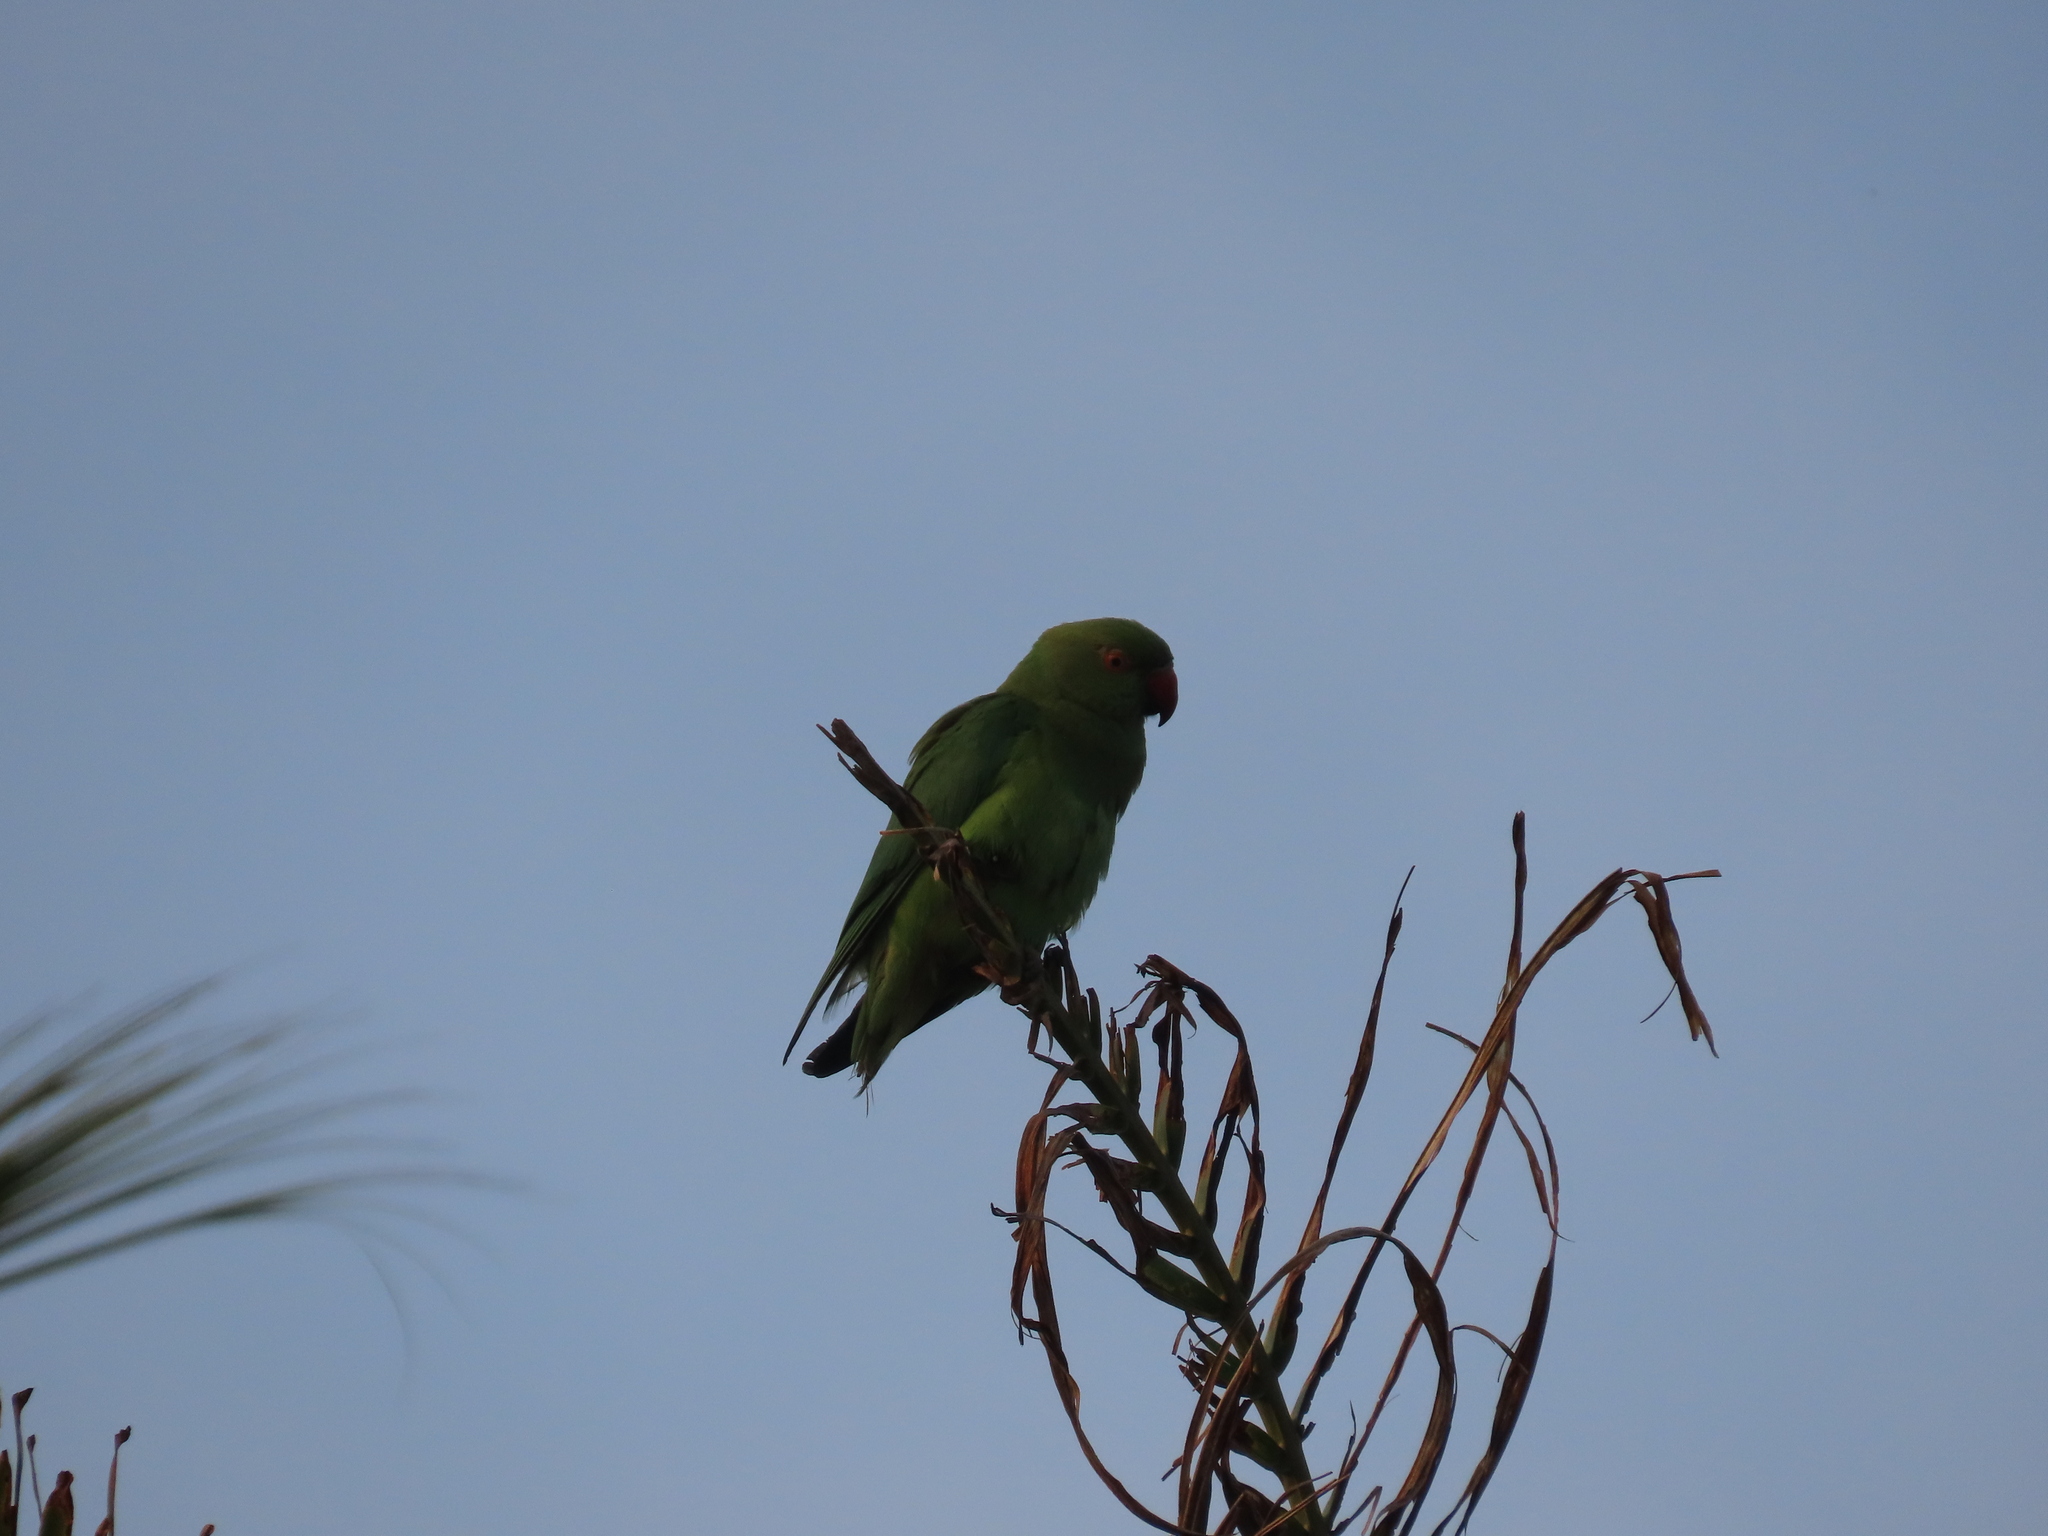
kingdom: Animalia
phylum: Chordata
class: Aves
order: Psittaciformes
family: Psittacidae
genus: Psittacula
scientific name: Psittacula krameri
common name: Rose-ringed parakeet
